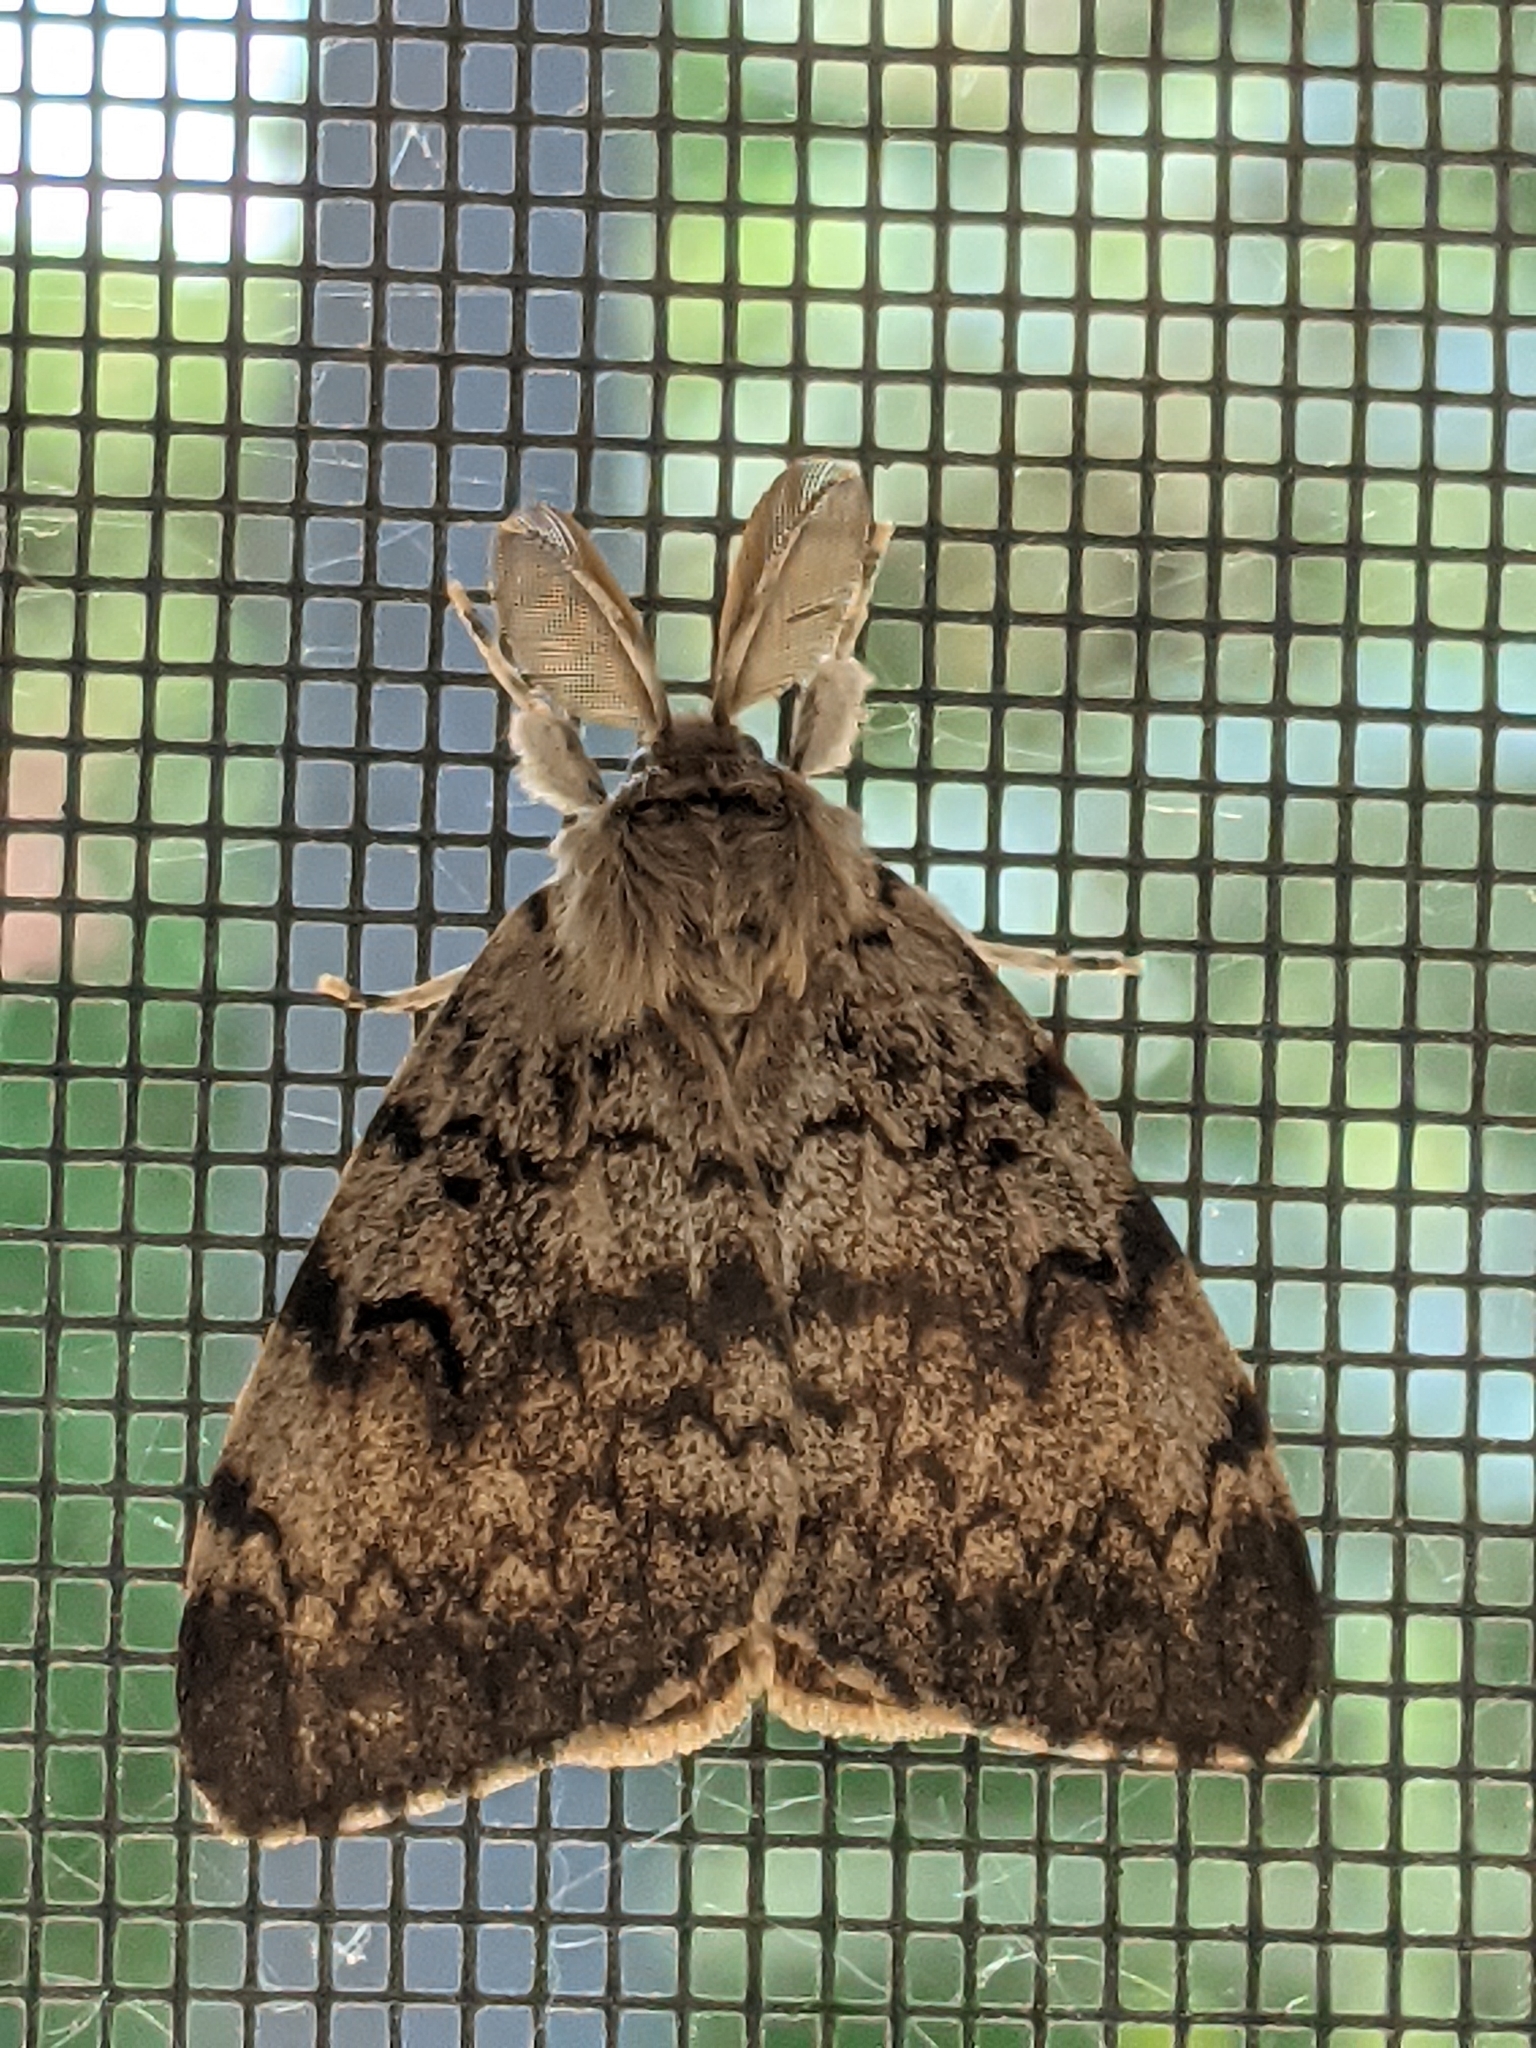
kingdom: Animalia
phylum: Arthropoda
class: Insecta
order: Lepidoptera
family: Erebidae
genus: Lymantria
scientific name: Lymantria dispar
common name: Gypsy moth
